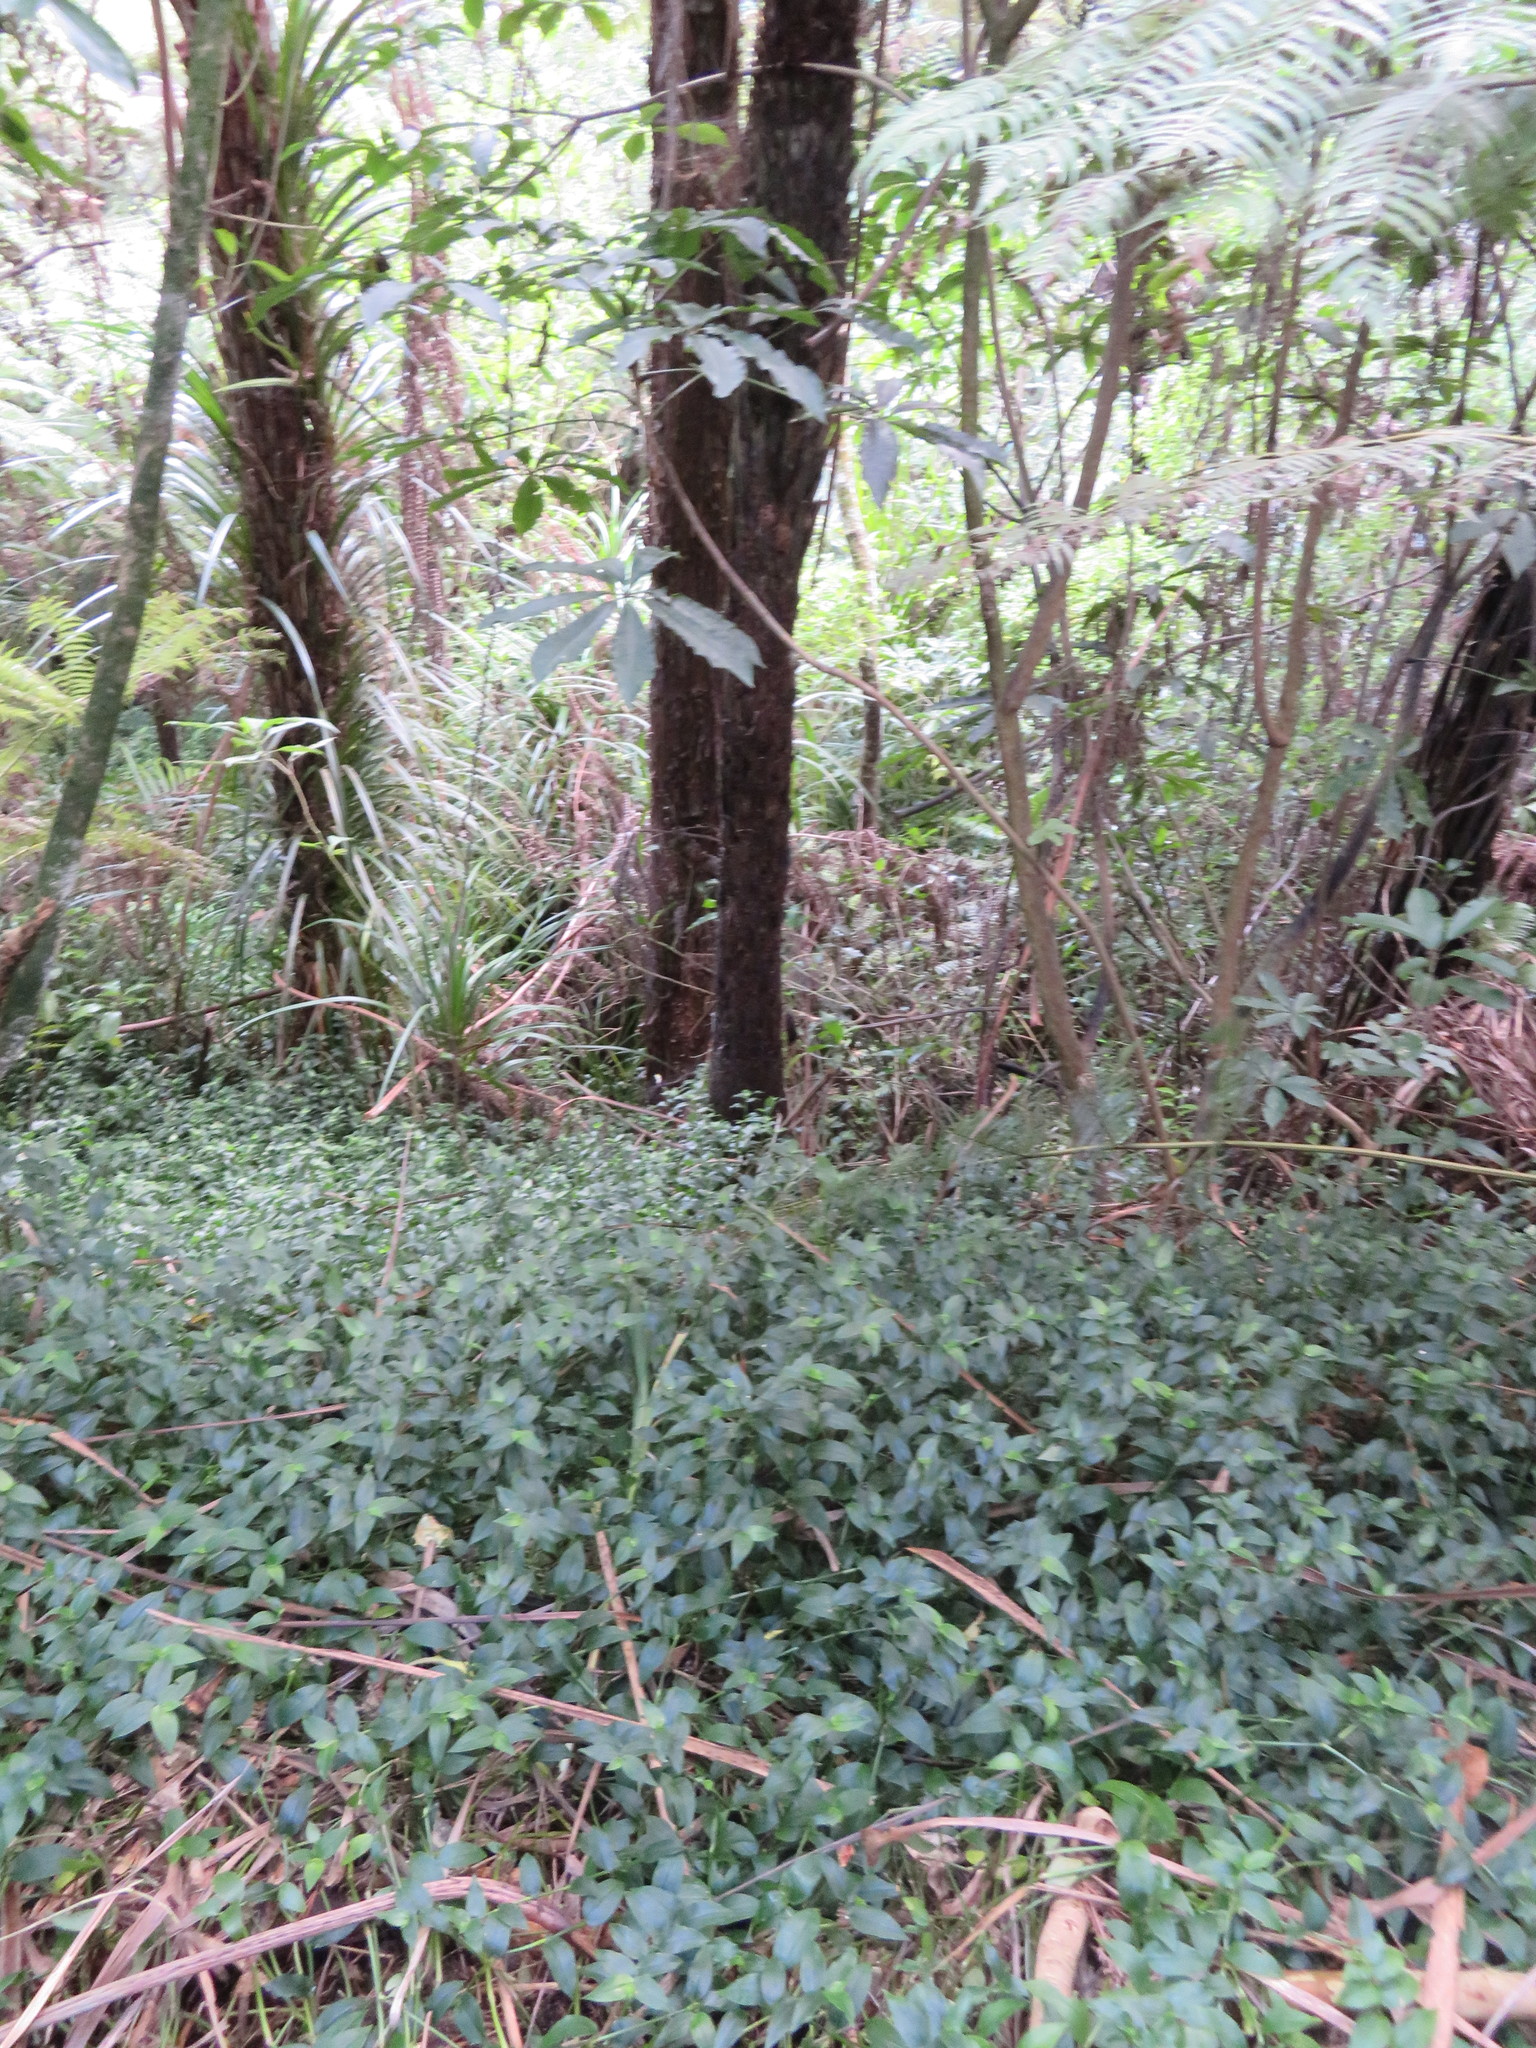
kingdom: Plantae
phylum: Tracheophyta
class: Magnoliopsida
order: Apiales
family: Araliaceae
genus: Schefflera
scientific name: Schefflera digitata
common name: Pate
